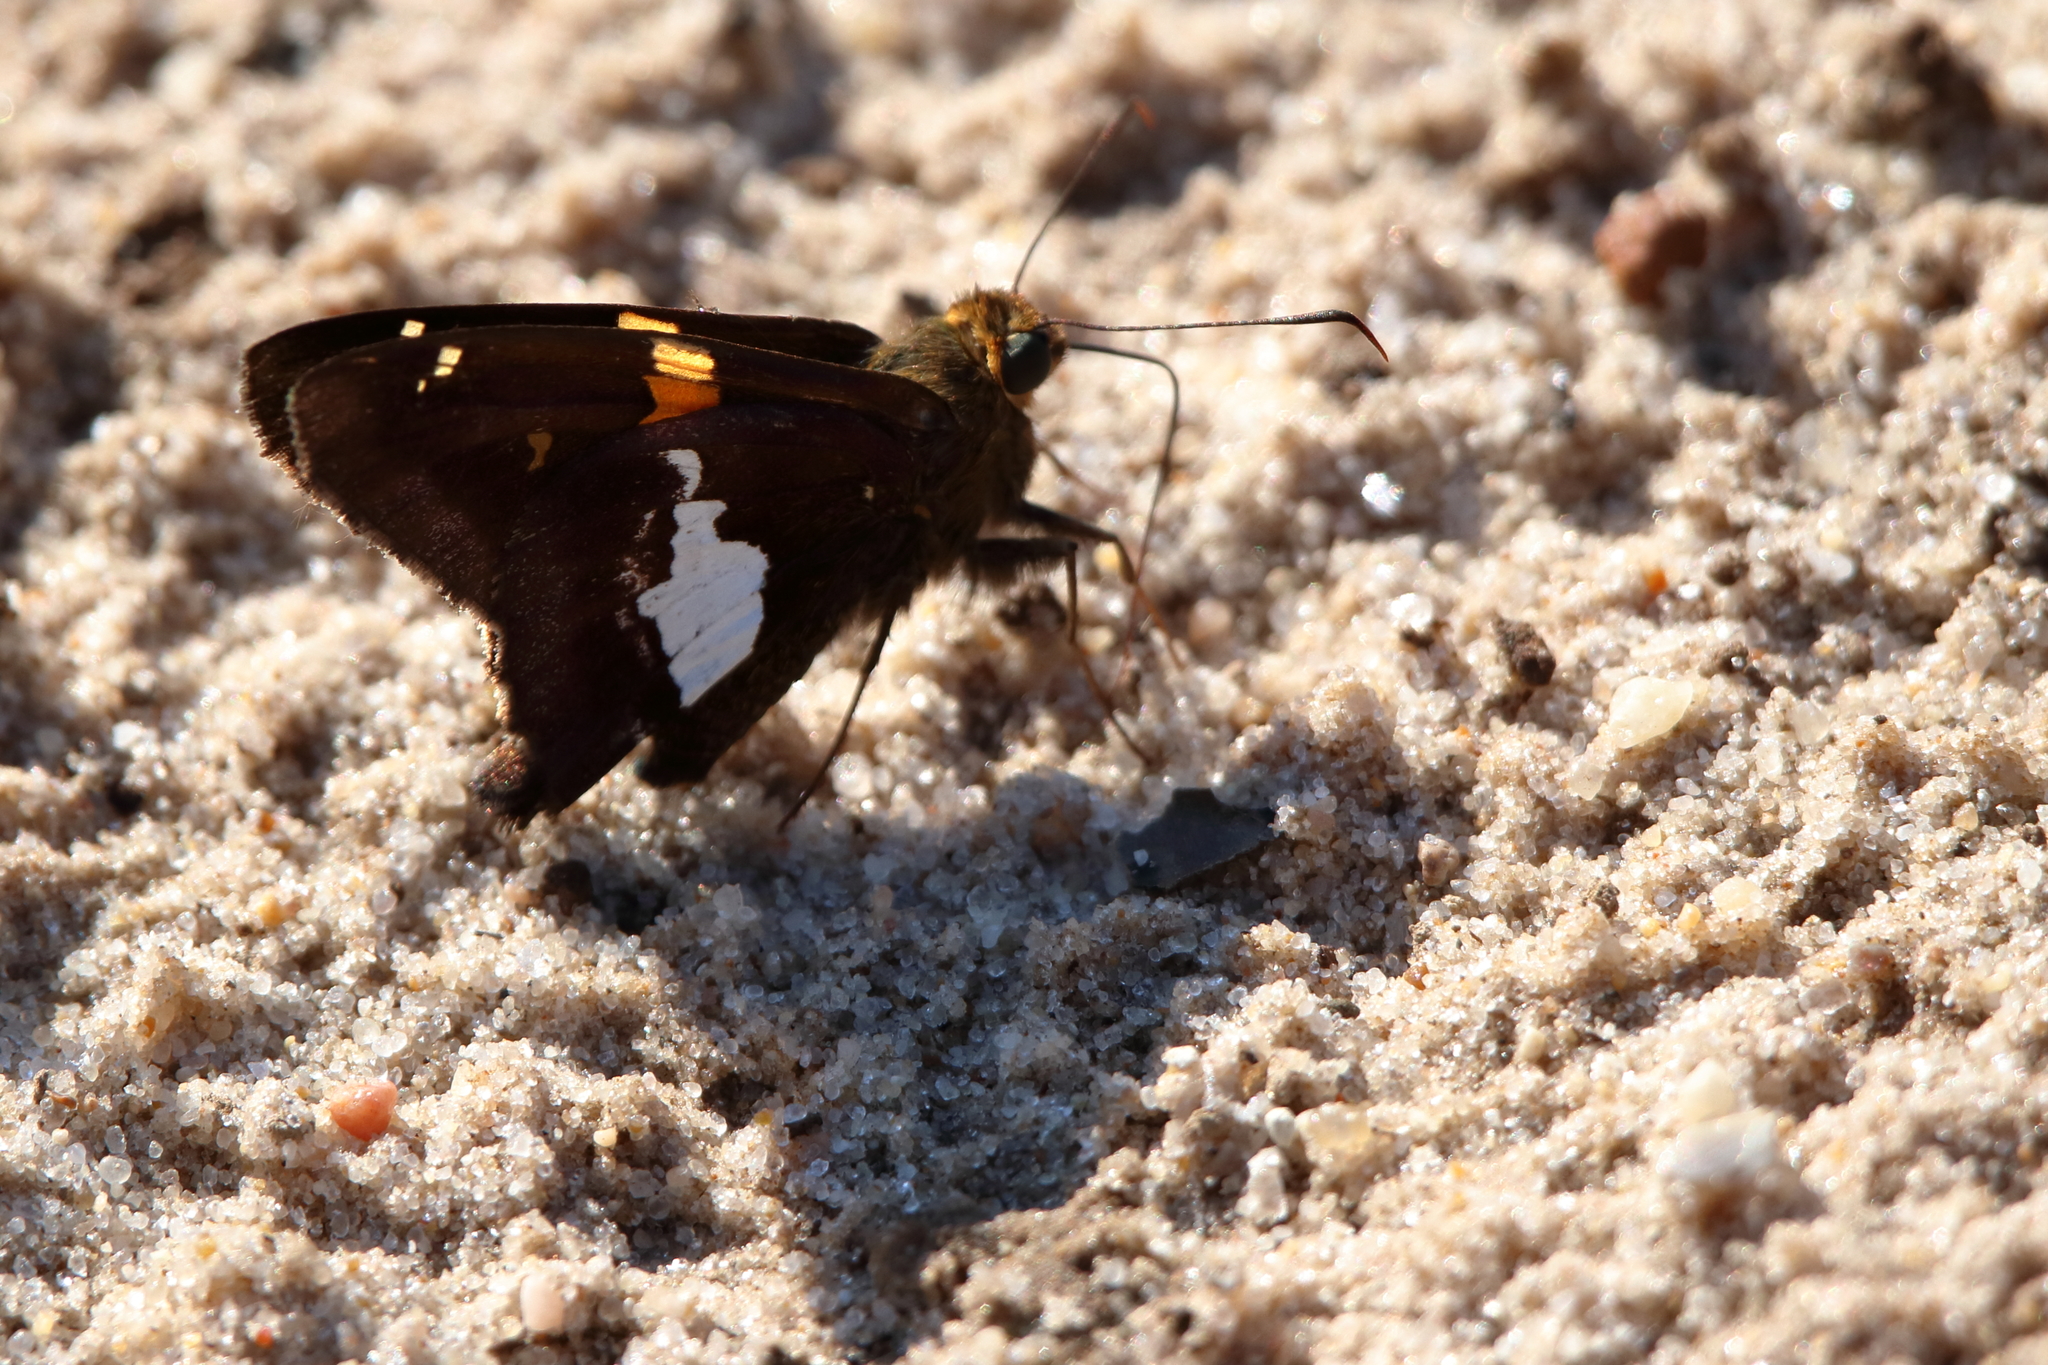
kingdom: Animalia
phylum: Arthropoda
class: Insecta
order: Lepidoptera
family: Hesperiidae
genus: Epargyreus
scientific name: Epargyreus clarus
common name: Silver-spotted skipper
